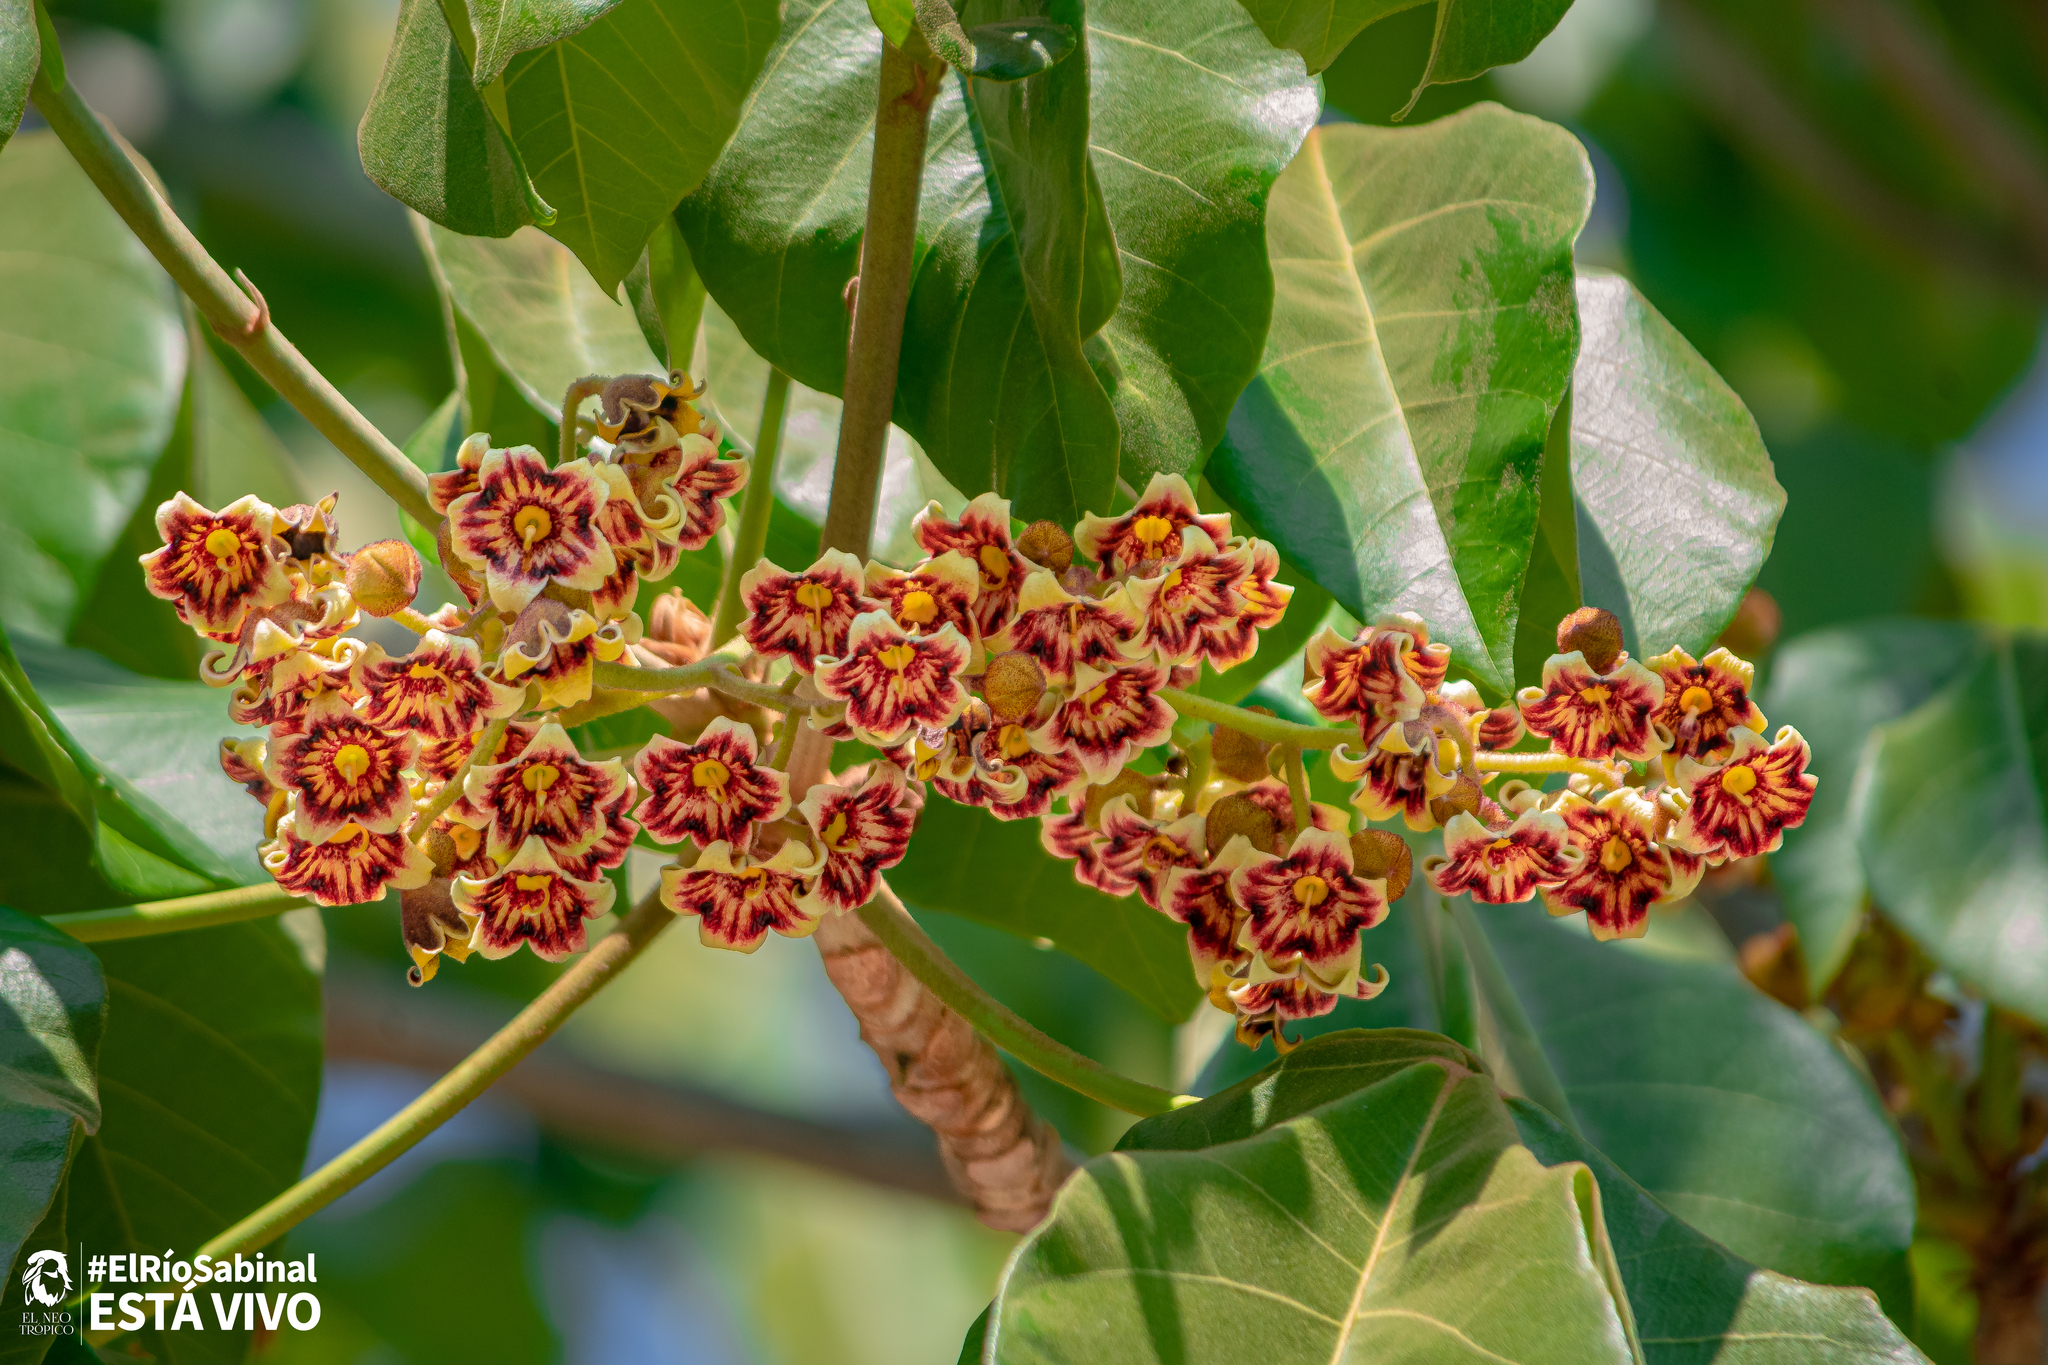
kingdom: Plantae
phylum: Tracheophyta
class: Magnoliopsida
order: Malvales
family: Malvaceae
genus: Sterculia
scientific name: Sterculia apetala
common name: Panama tree
